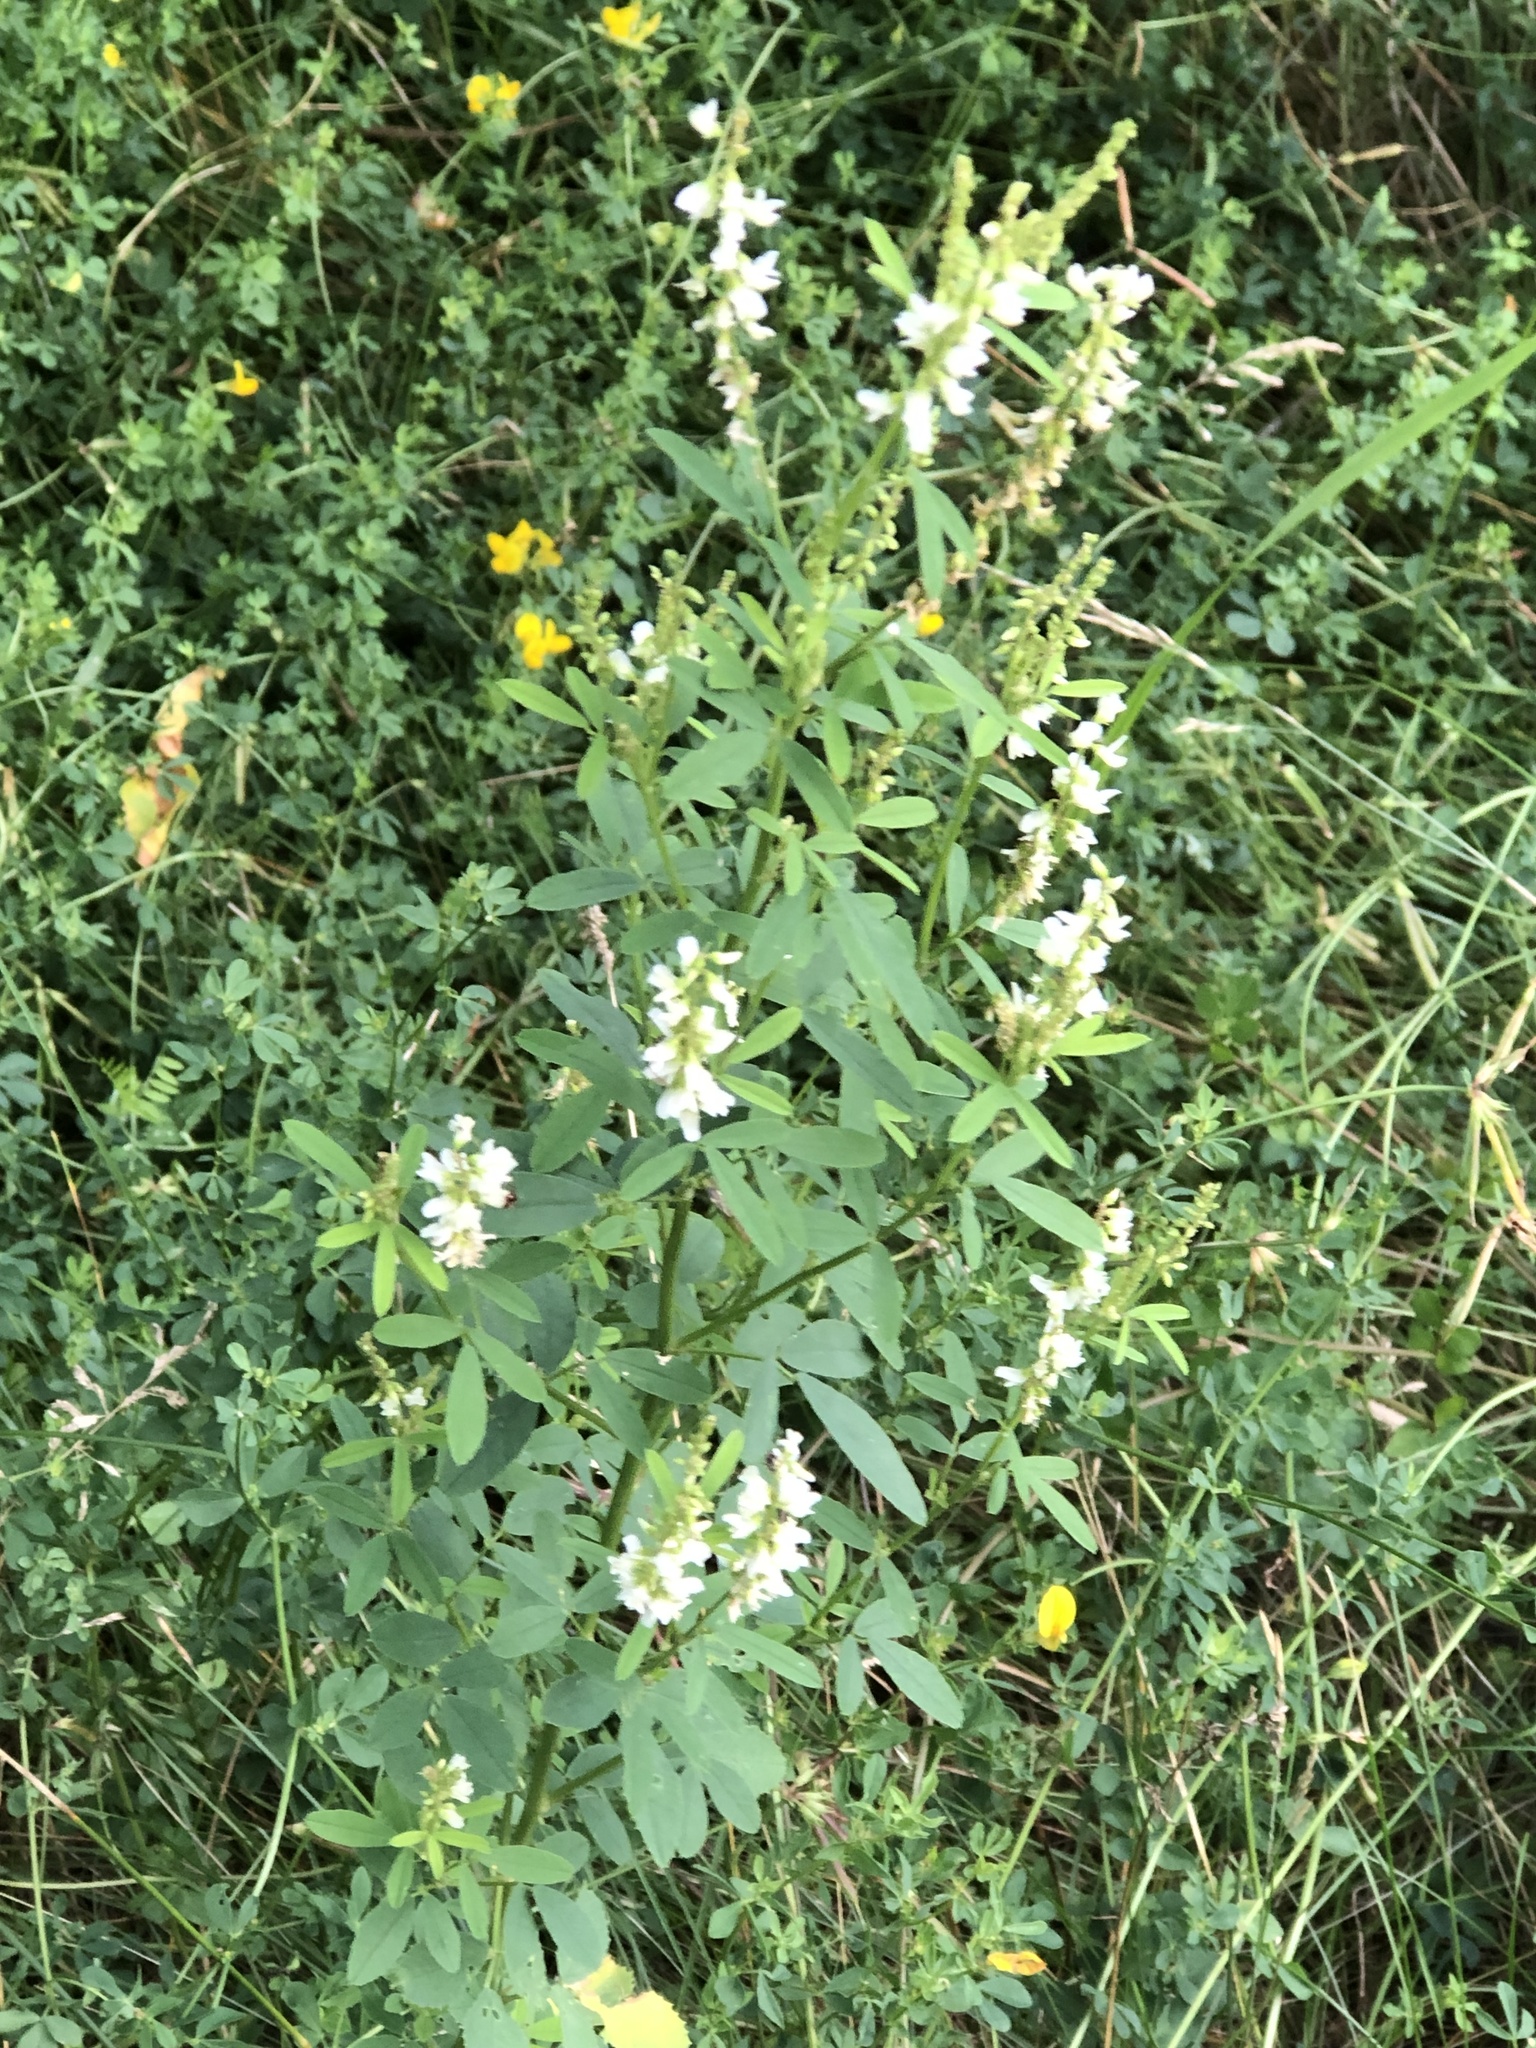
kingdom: Plantae
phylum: Tracheophyta
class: Magnoliopsida
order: Fabales
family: Fabaceae
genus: Melilotus
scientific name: Melilotus albus
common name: White melilot
